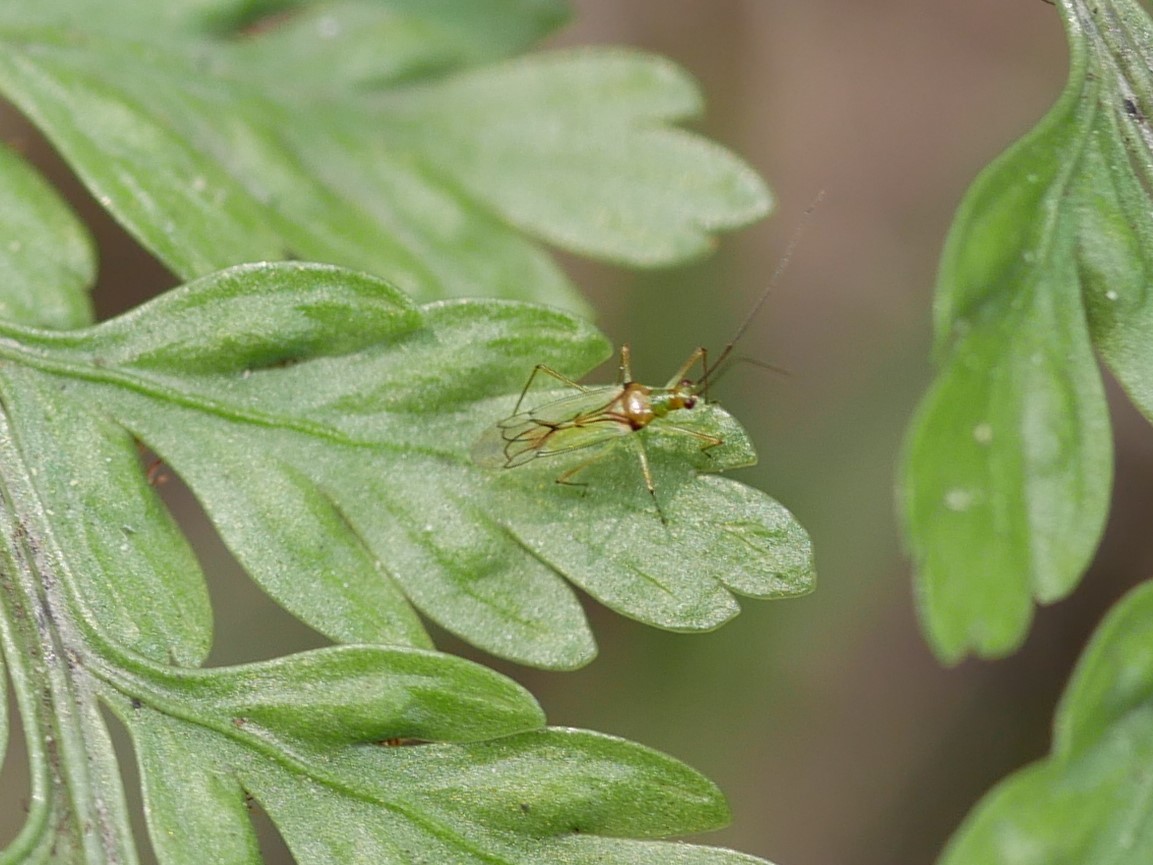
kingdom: Animalia
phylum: Arthropoda
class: Insecta
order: Hemiptera
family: Miridae
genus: Felisacus
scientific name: Felisacus elegantulus
